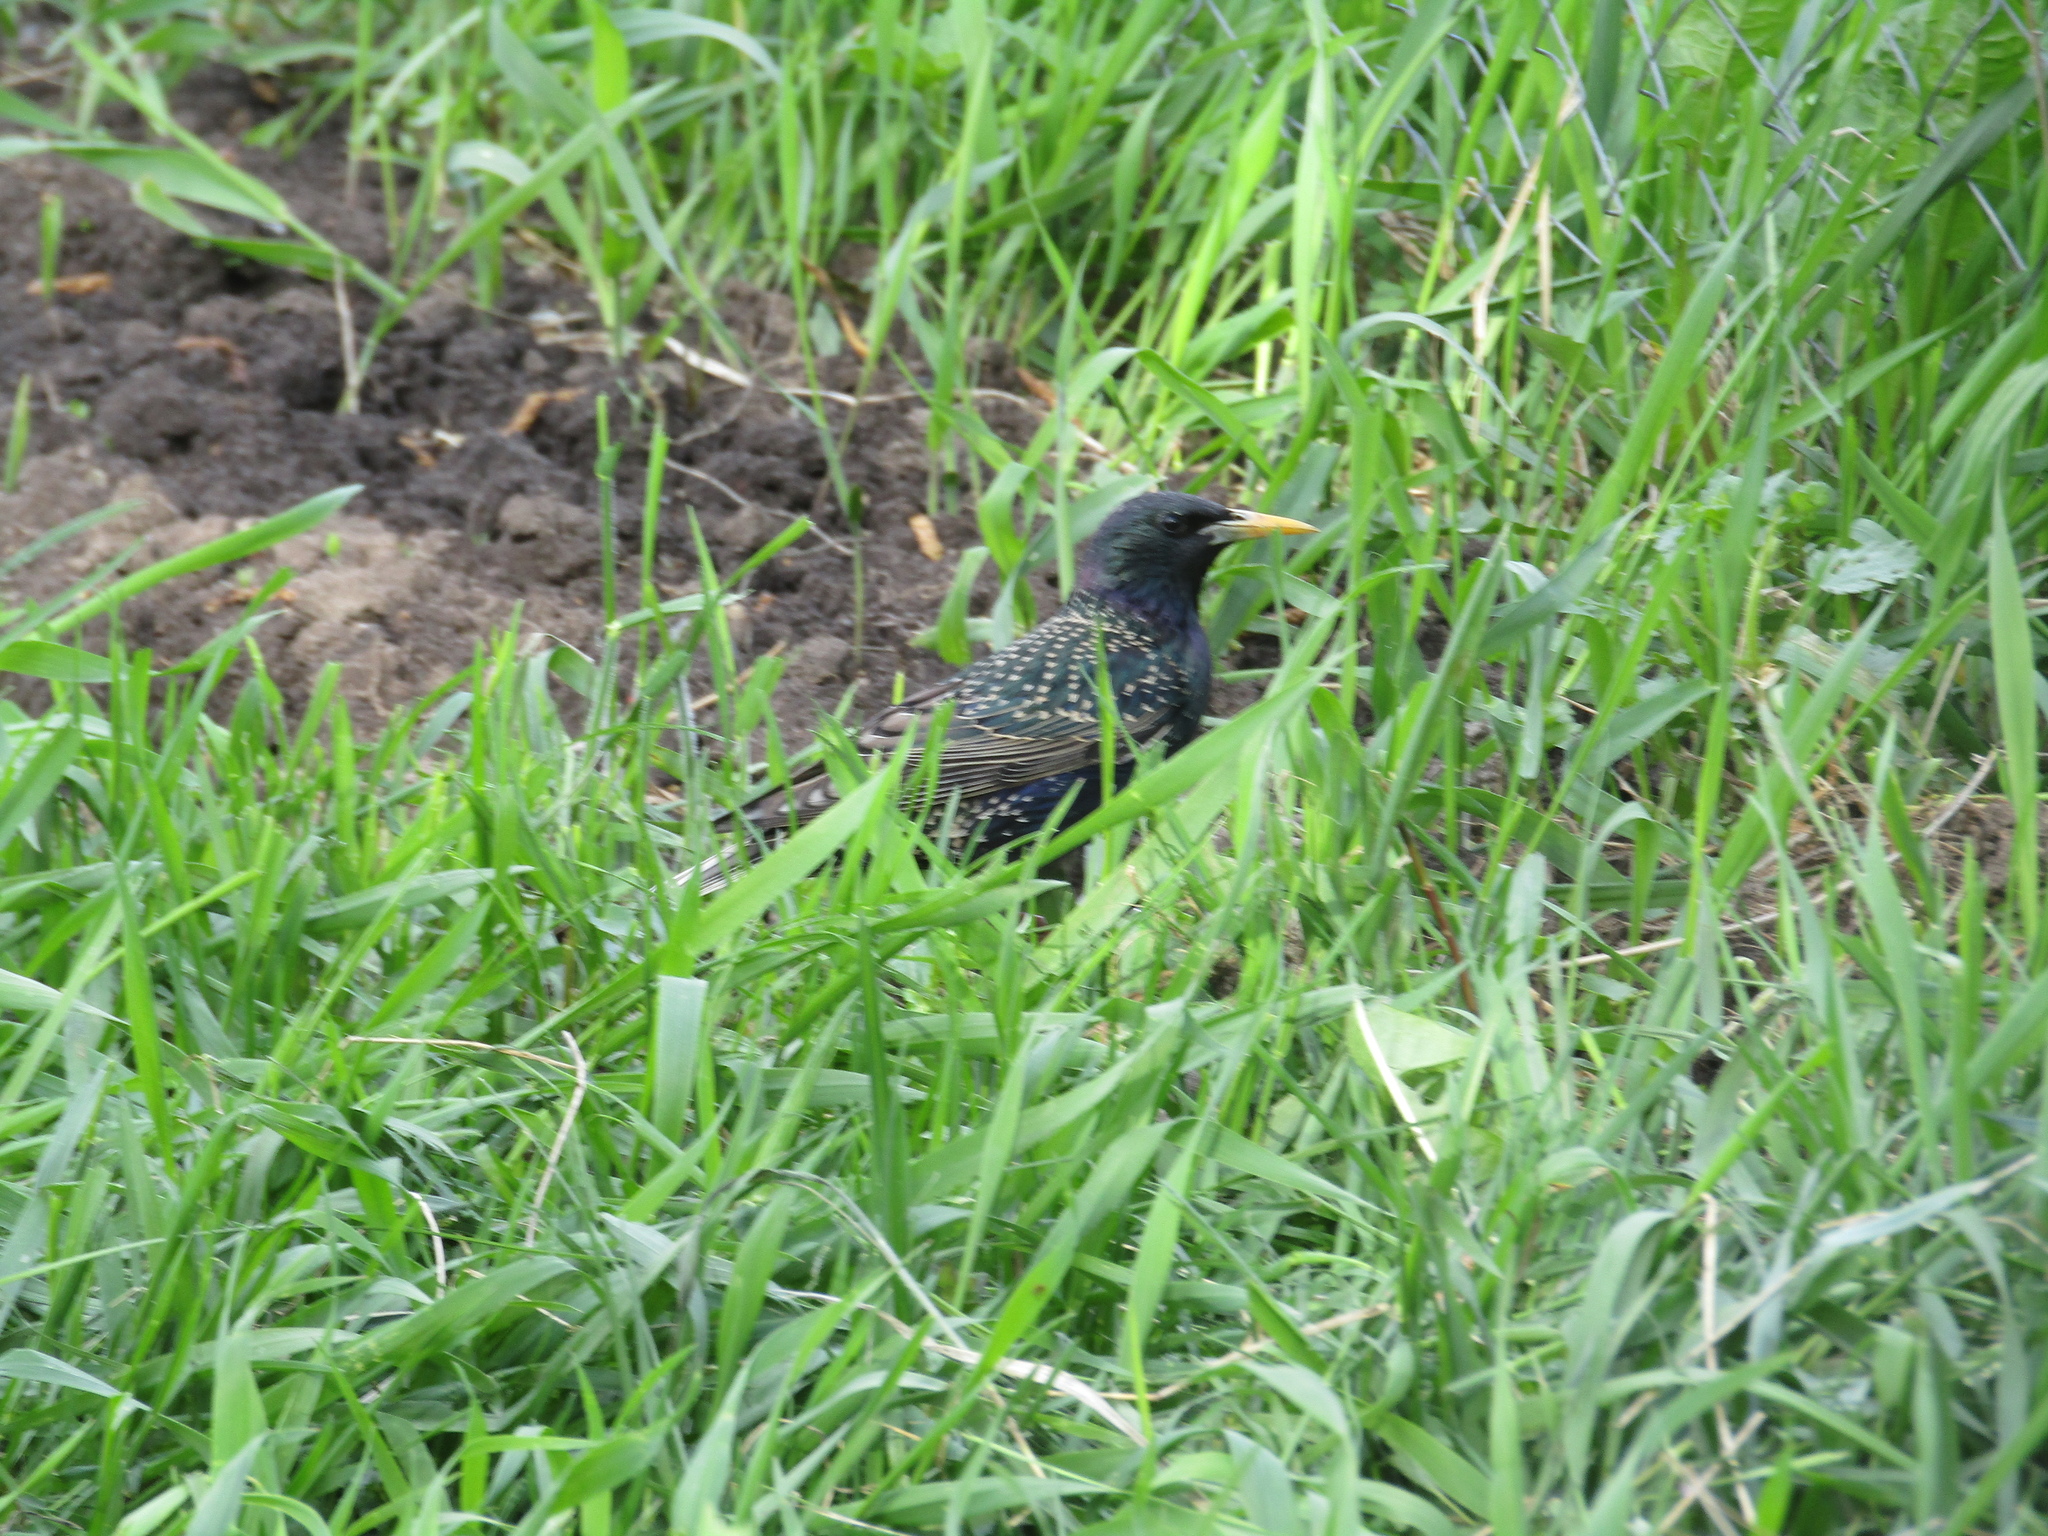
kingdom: Animalia
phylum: Chordata
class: Aves
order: Passeriformes
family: Sturnidae
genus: Sturnus
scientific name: Sturnus vulgaris
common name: Common starling
